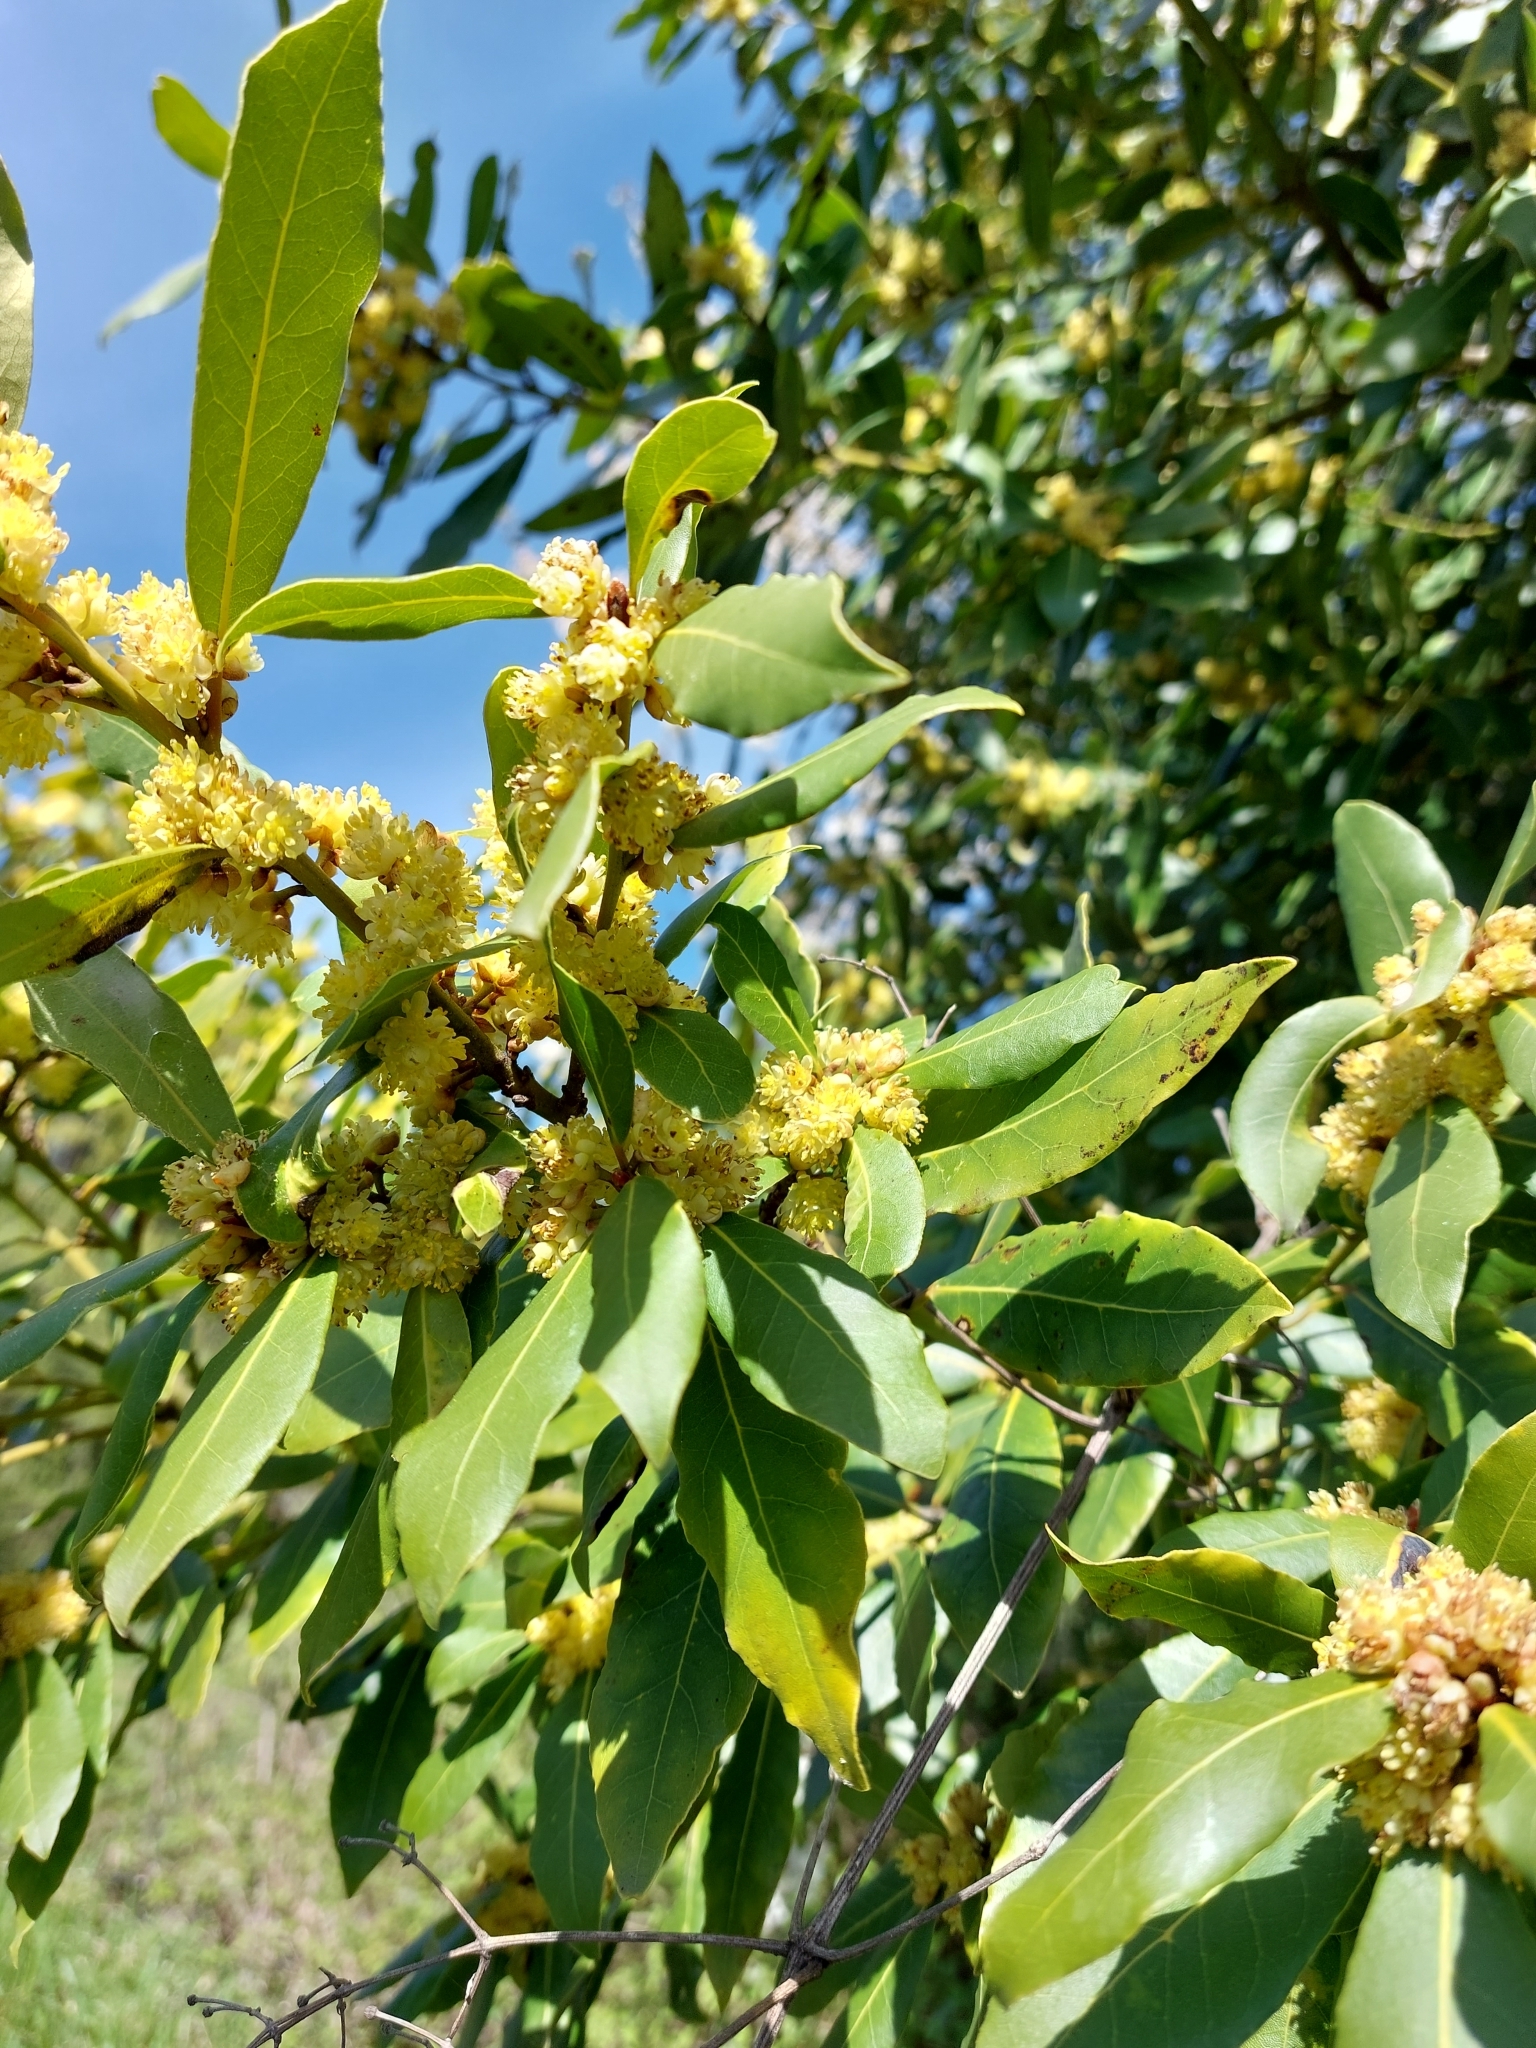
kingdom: Plantae
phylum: Tracheophyta
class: Magnoliopsida
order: Laurales
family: Lauraceae
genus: Laurus
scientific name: Laurus nobilis
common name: Bay
